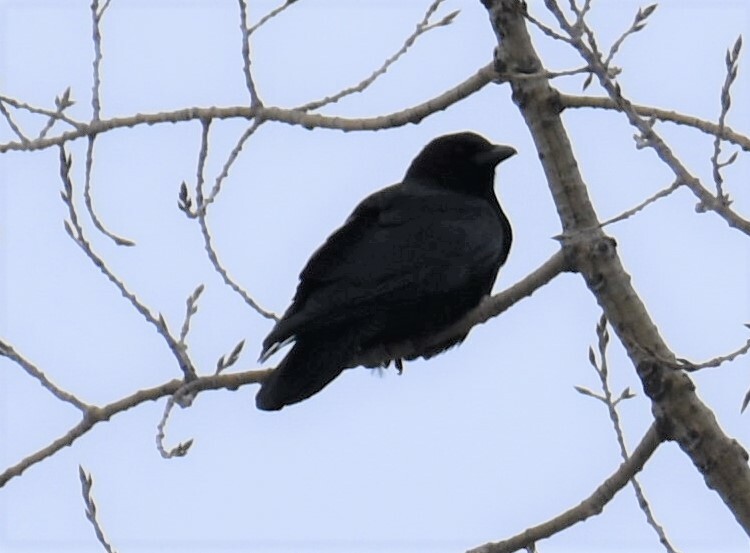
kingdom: Animalia
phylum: Chordata
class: Aves
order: Passeriformes
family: Corvidae
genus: Corvus
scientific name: Corvus brachyrhynchos
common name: American crow
